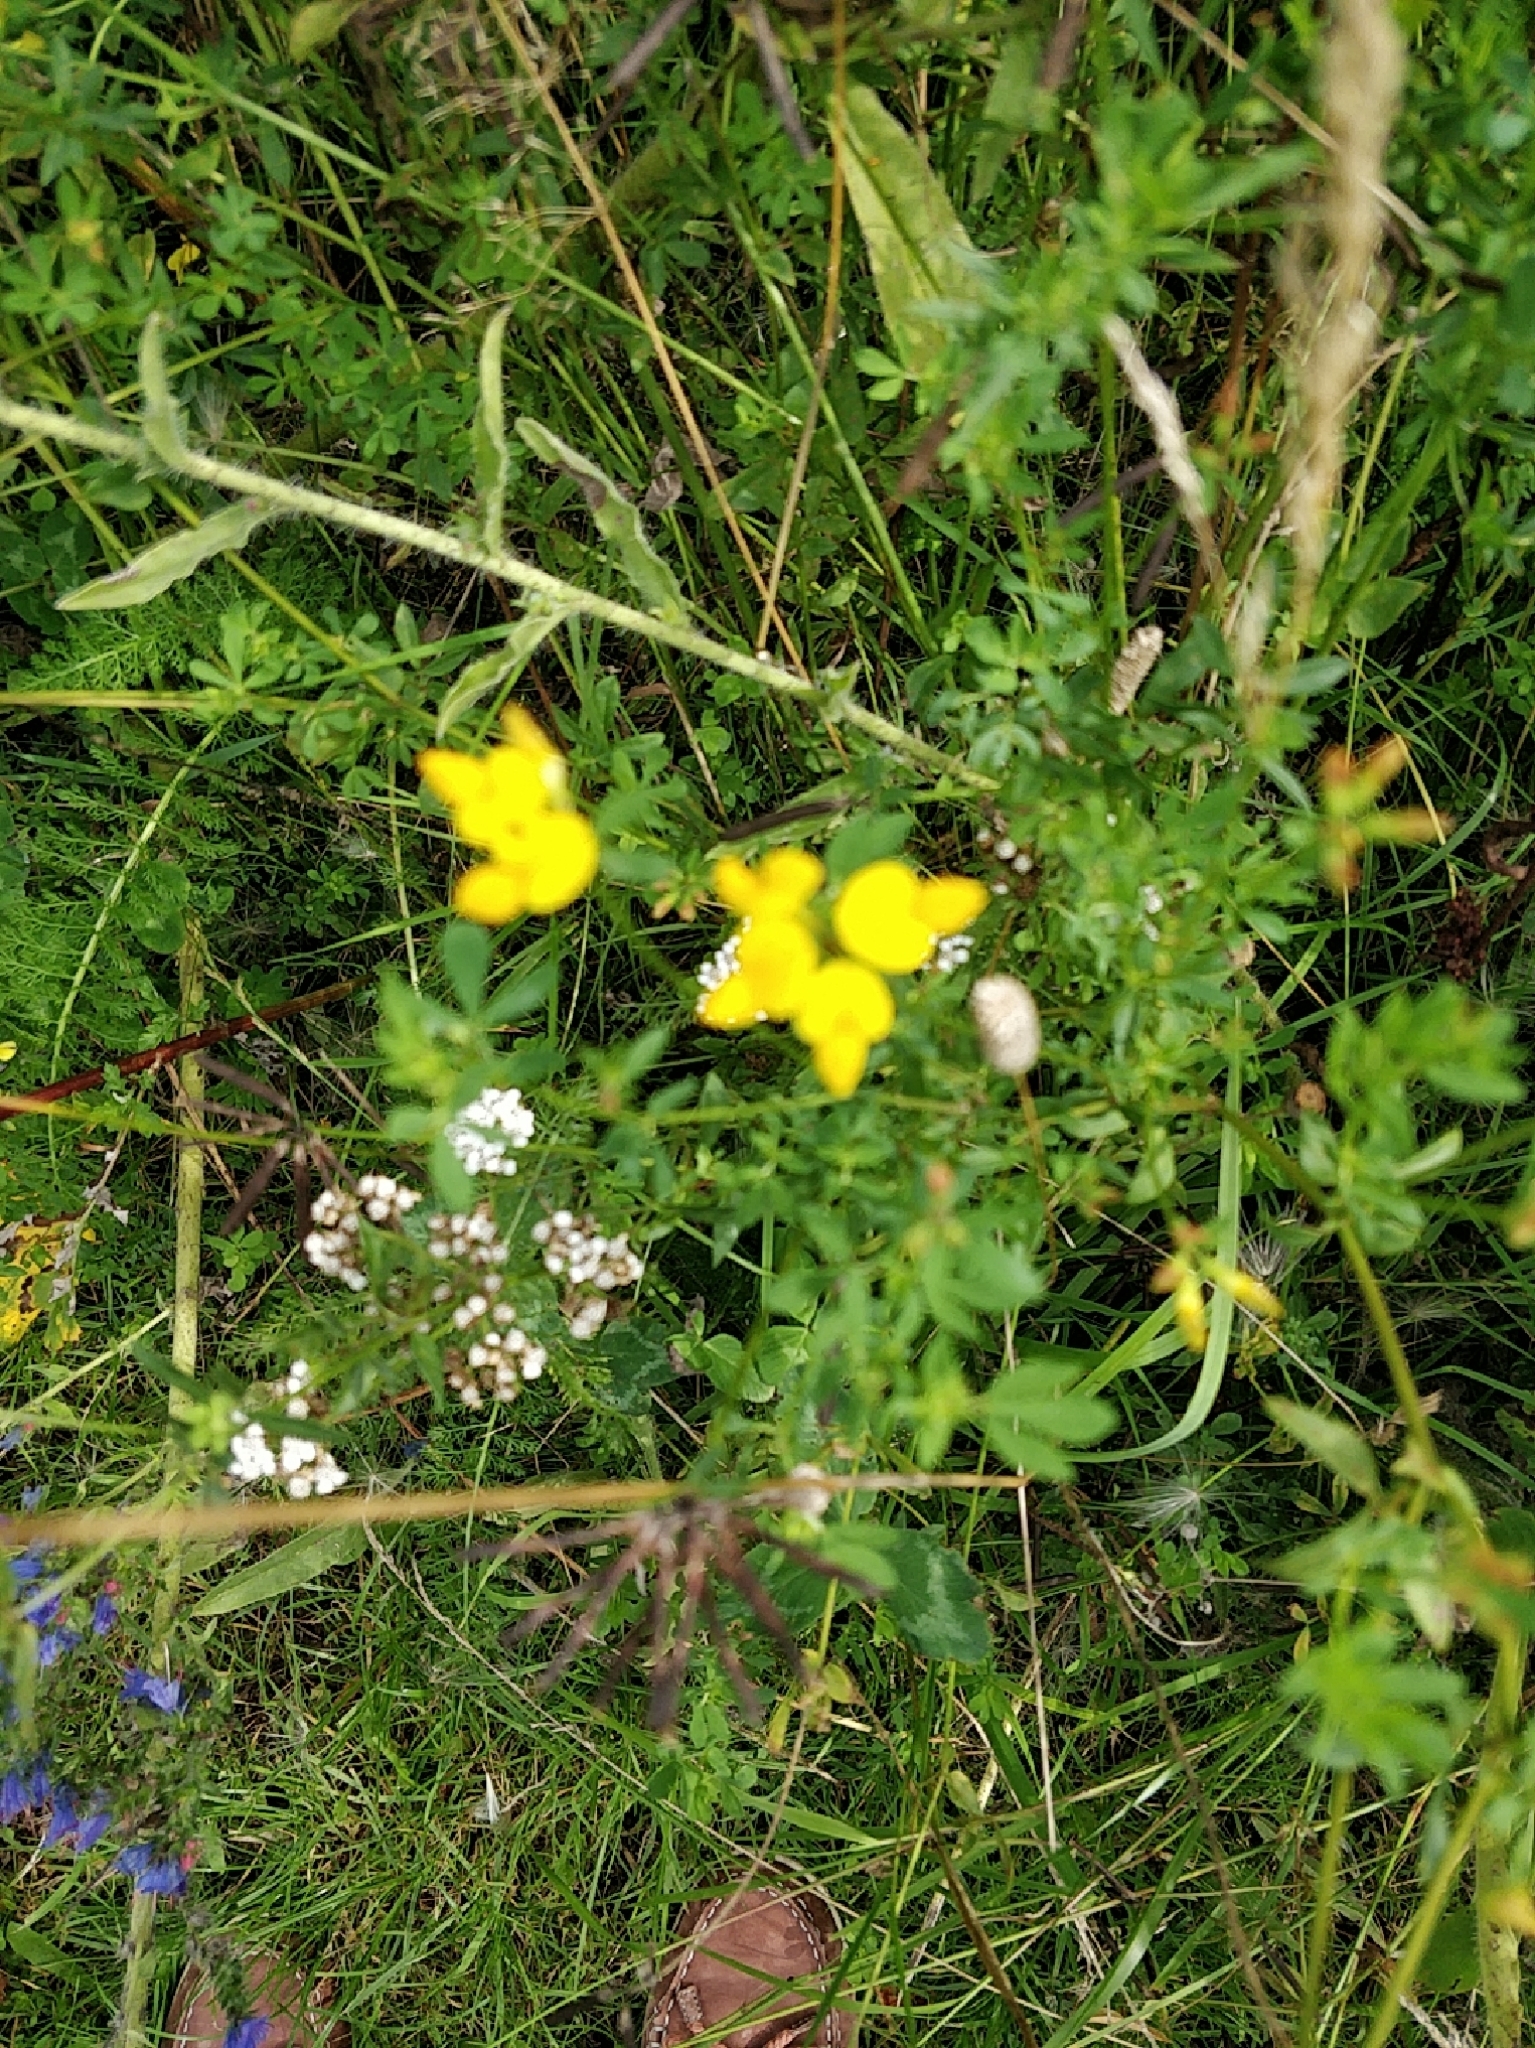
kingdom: Plantae
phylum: Tracheophyta
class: Magnoliopsida
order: Fabales
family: Fabaceae
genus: Lotus
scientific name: Lotus corniculatus
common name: Common bird's-foot-trefoil
